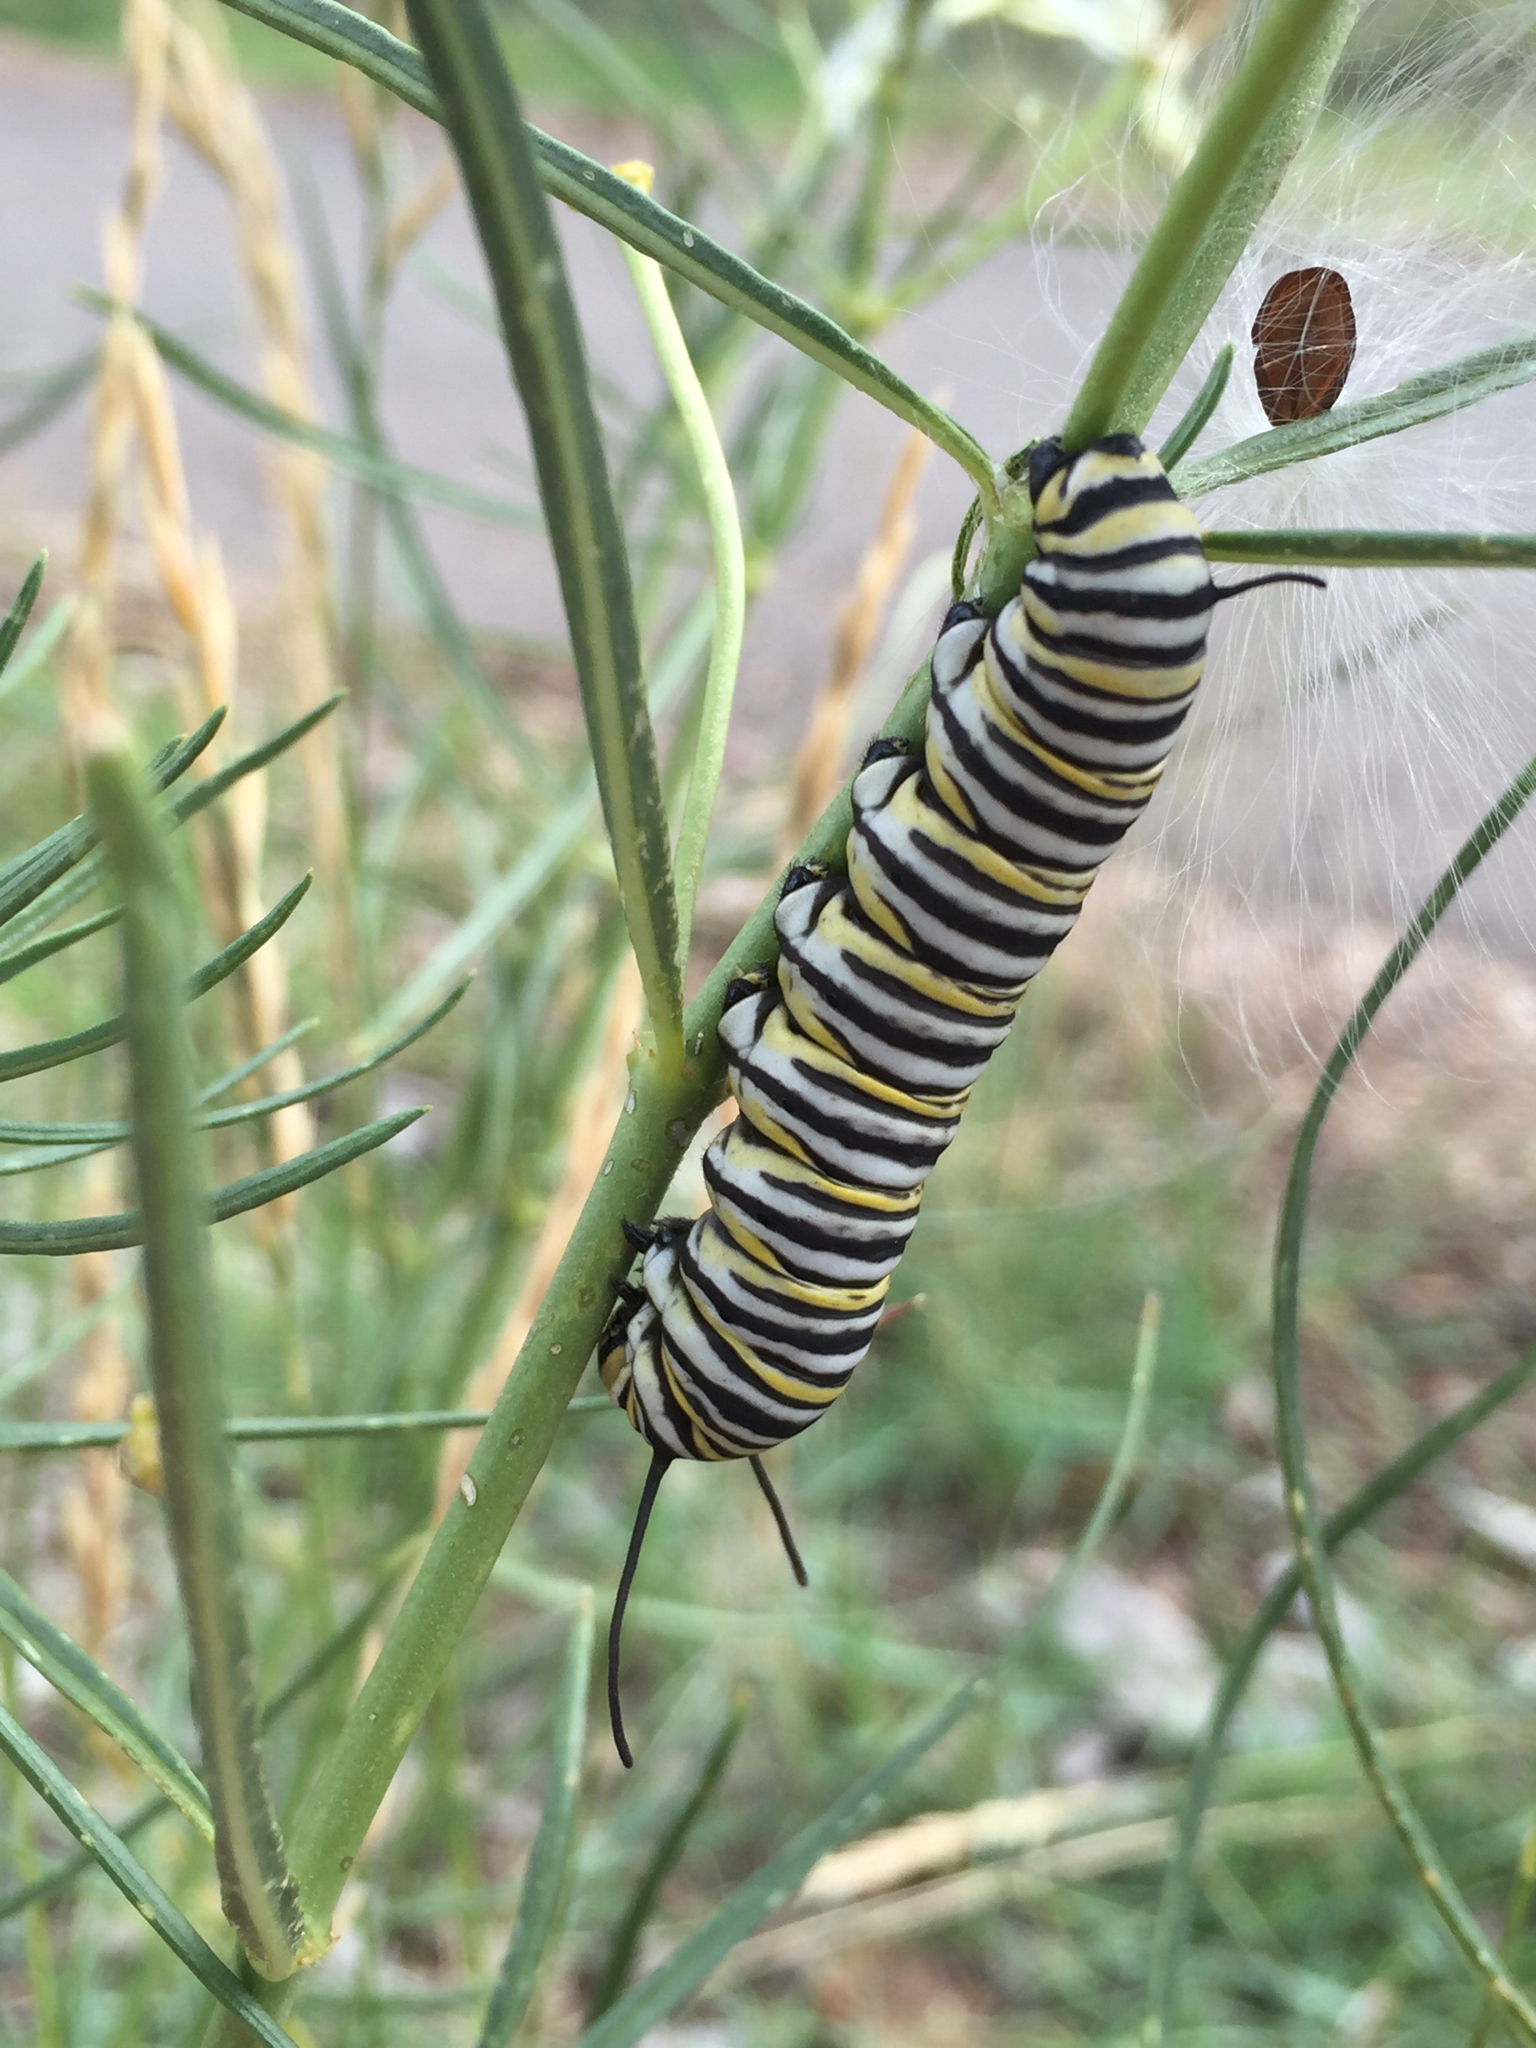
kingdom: Animalia
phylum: Arthropoda
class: Insecta
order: Lepidoptera
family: Nymphalidae
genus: Danaus
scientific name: Danaus plexippus
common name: Monarch
